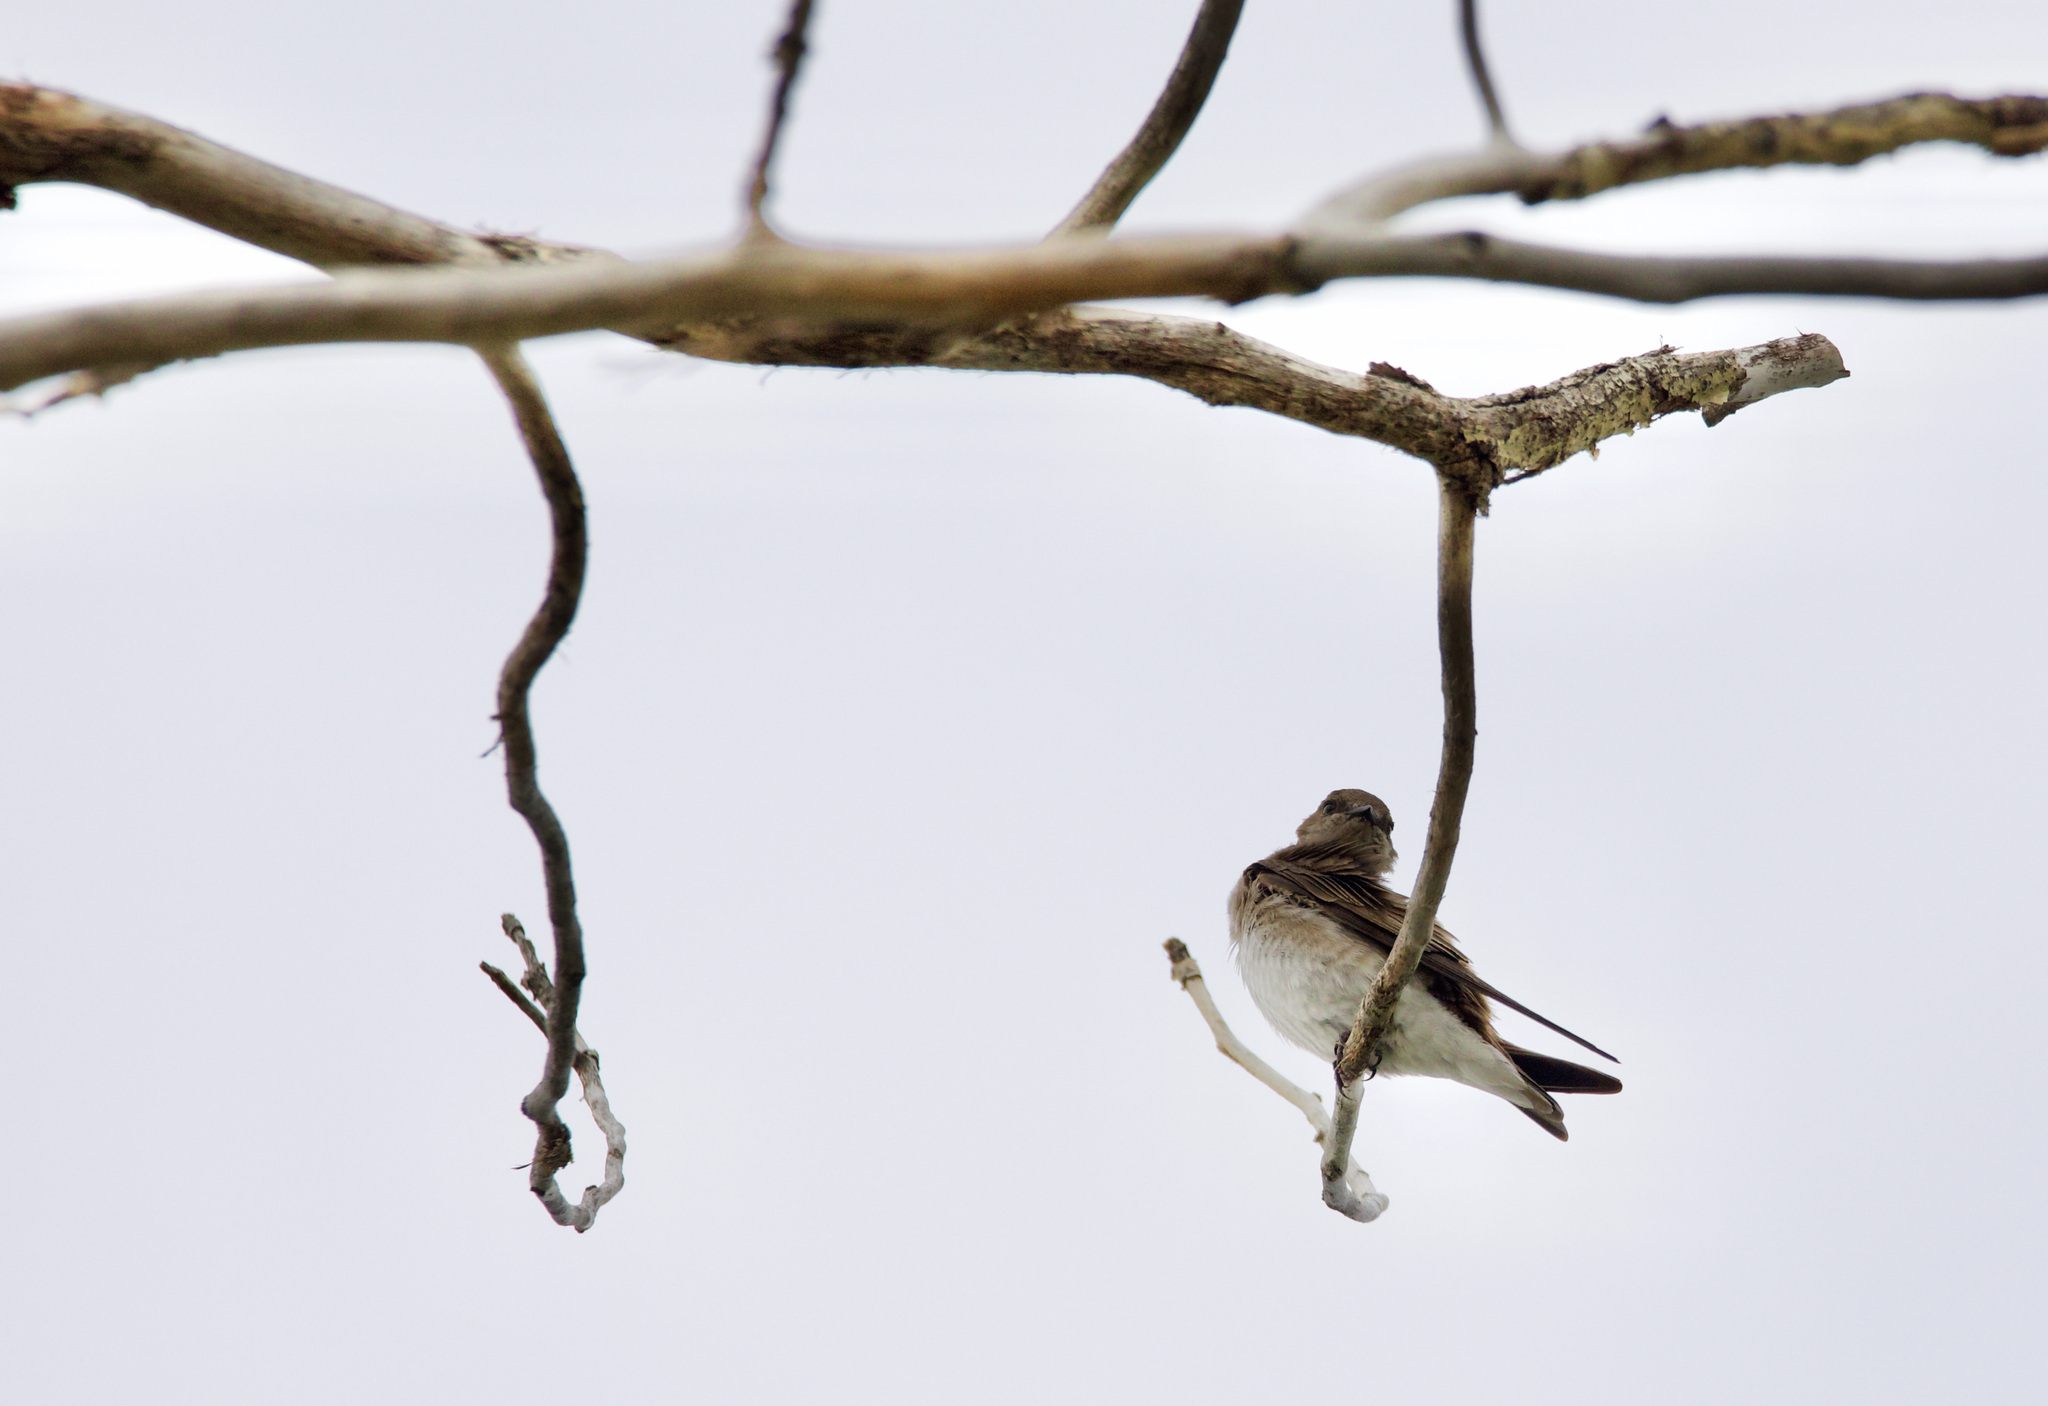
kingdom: Animalia
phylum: Chordata
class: Aves
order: Passeriformes
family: Hirundinidae
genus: Stelgidopteryx
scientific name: Stelgidopteryx serripennis
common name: Northern rough-winged swallow
